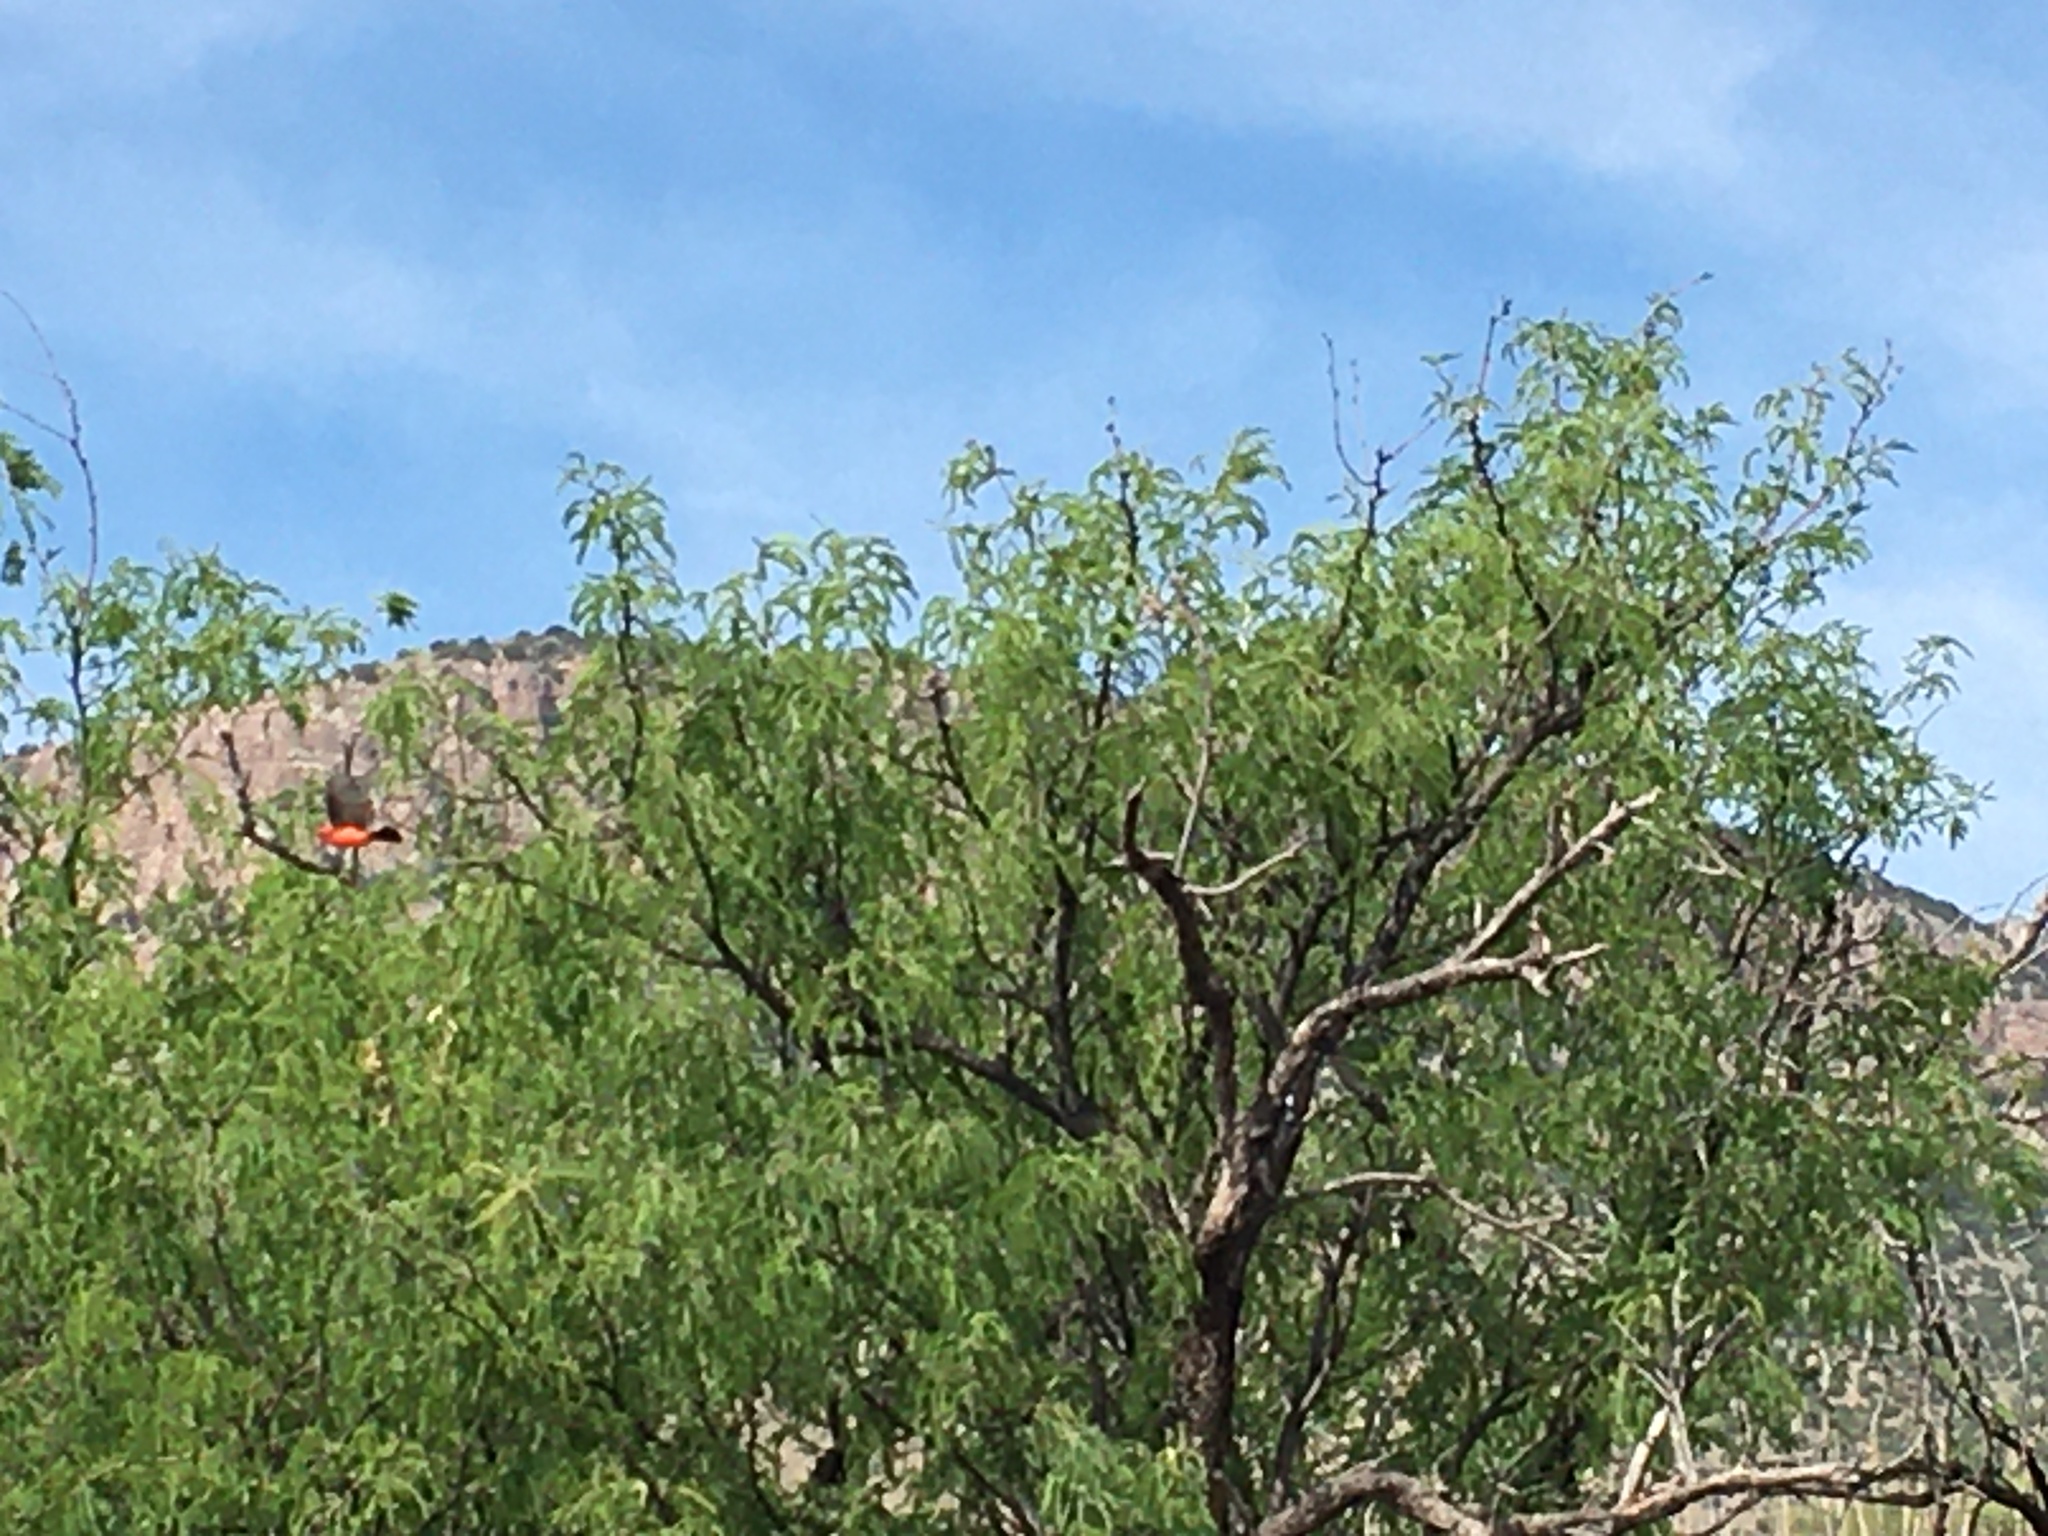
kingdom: Animalia
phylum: Chordata
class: Aves
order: Passeriformes
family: Tyrannidae
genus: Pyrocephalus
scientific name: Pyrocephalus rubinus
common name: Vermilion flycatcher
